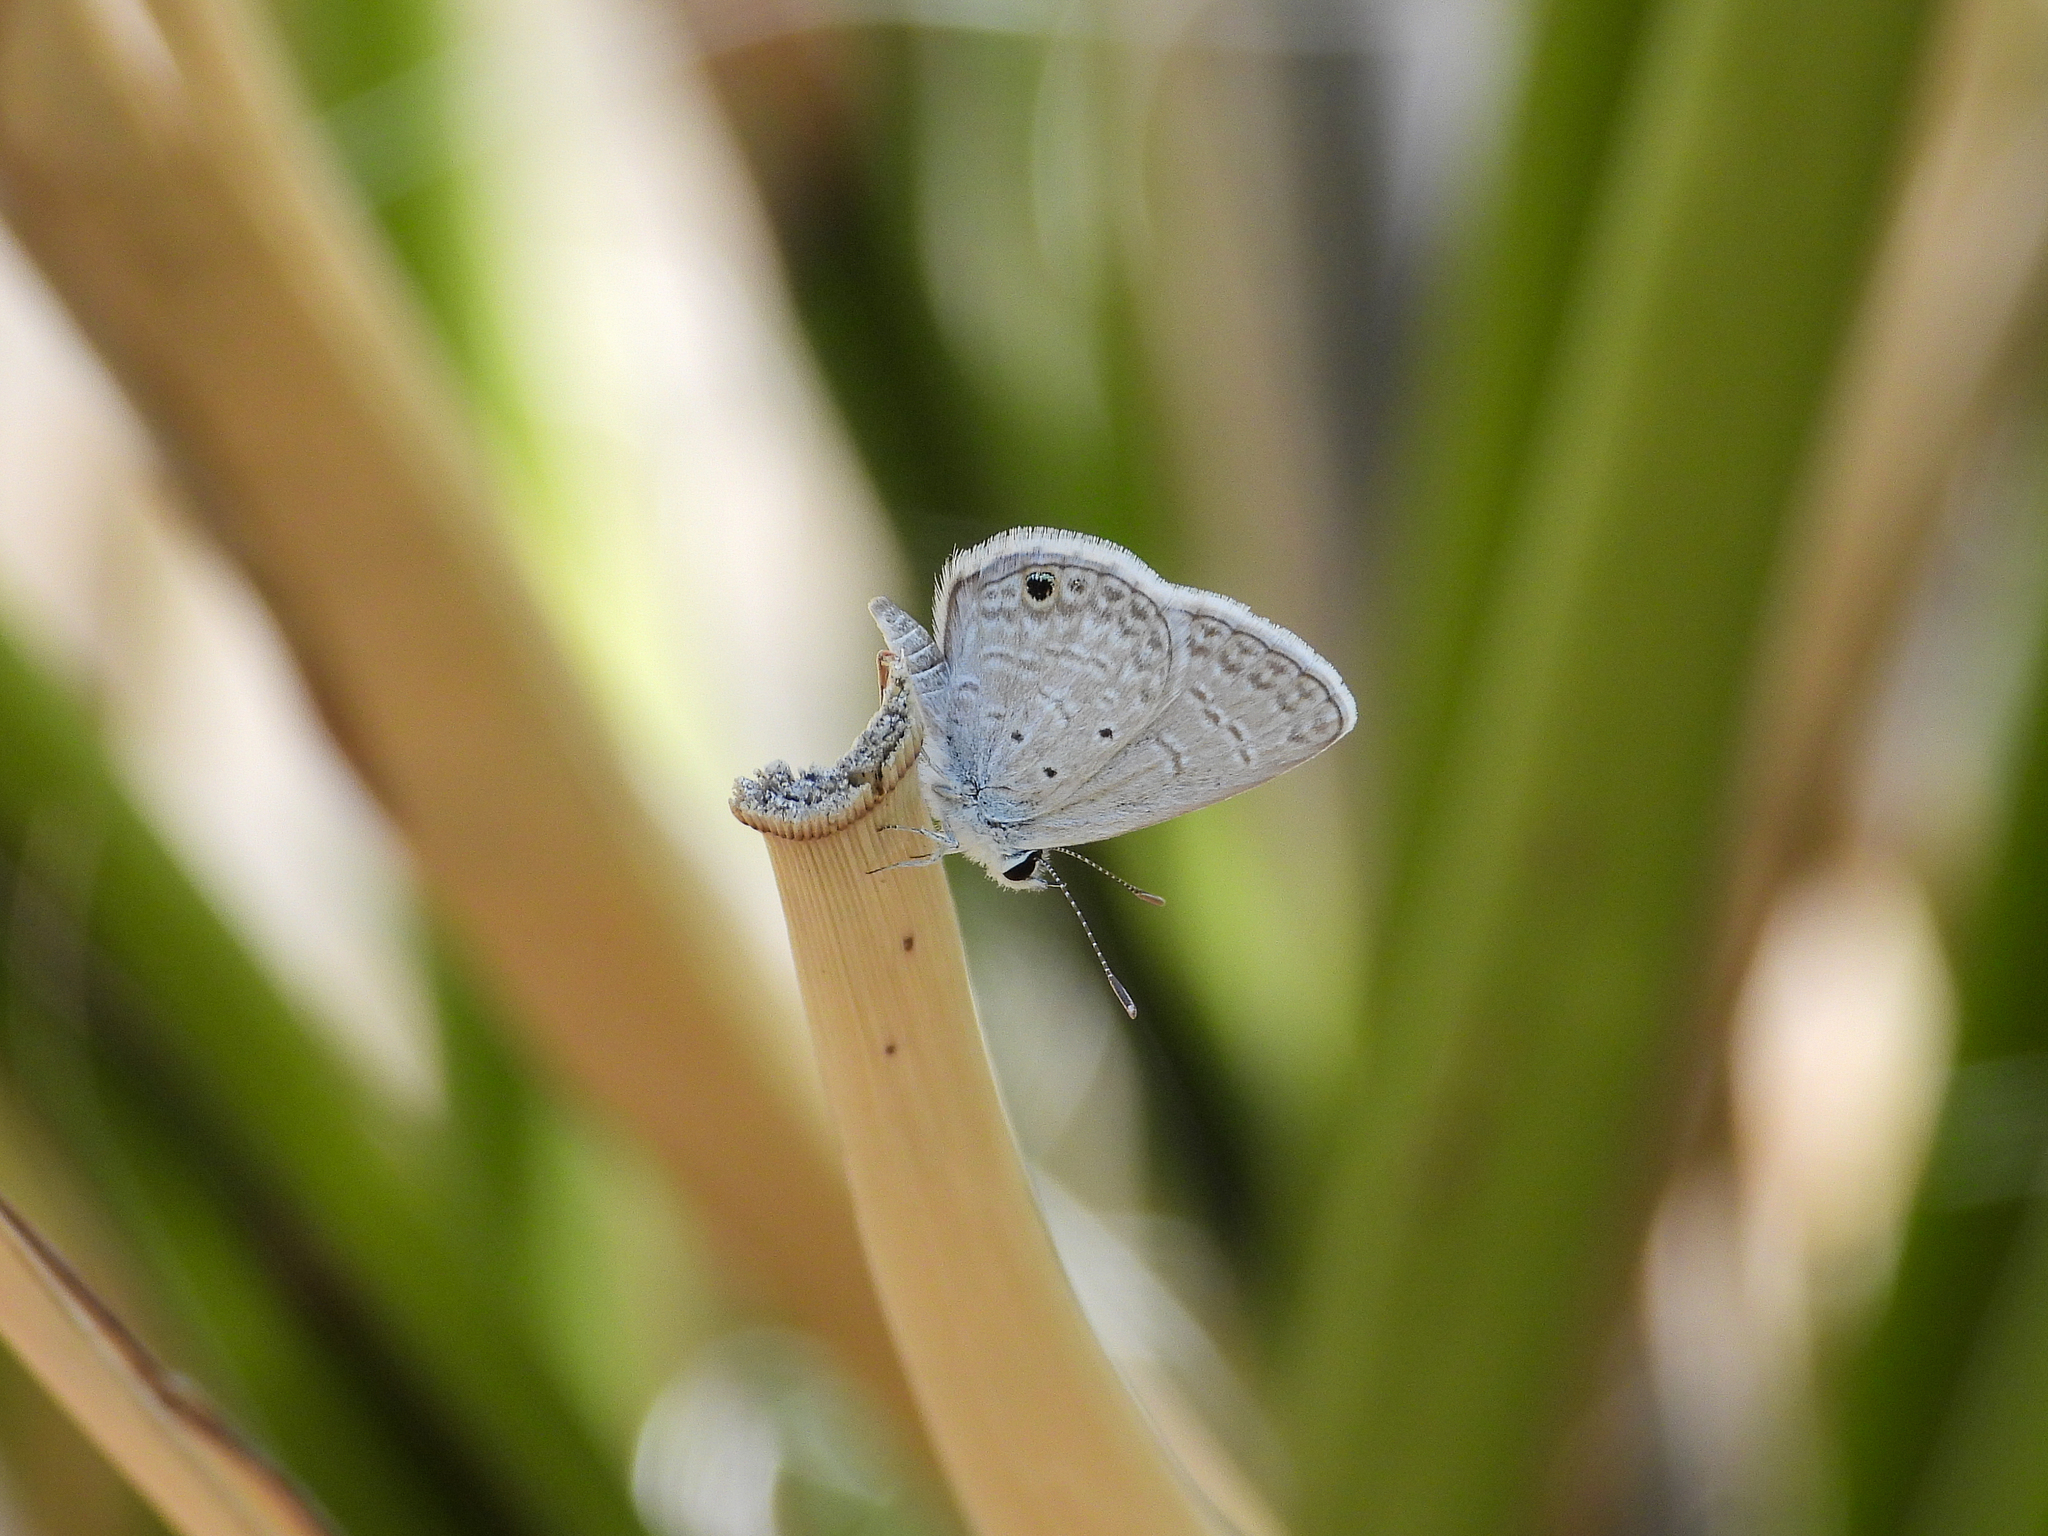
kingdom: Animalia
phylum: Arthropoda
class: Insecta
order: Lepidoptera
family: Lycaenidae
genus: Hemiargus
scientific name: Hemiargus ceraunus
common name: Ceraunus blue
